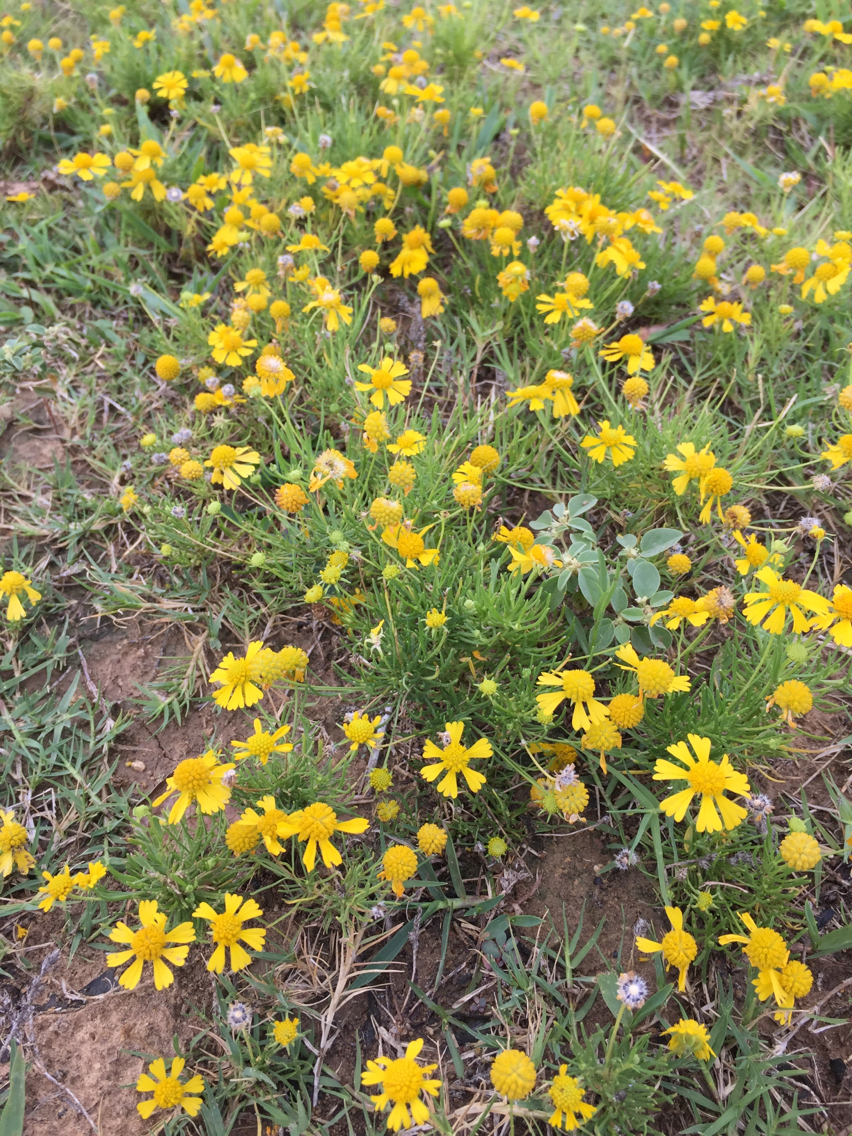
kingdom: Plantae
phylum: Tracheophyta
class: Magnoliopsida
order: Asterales
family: Asteraceae
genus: Helenium
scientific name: Helenium amarum
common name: Bitter sneezeweed
